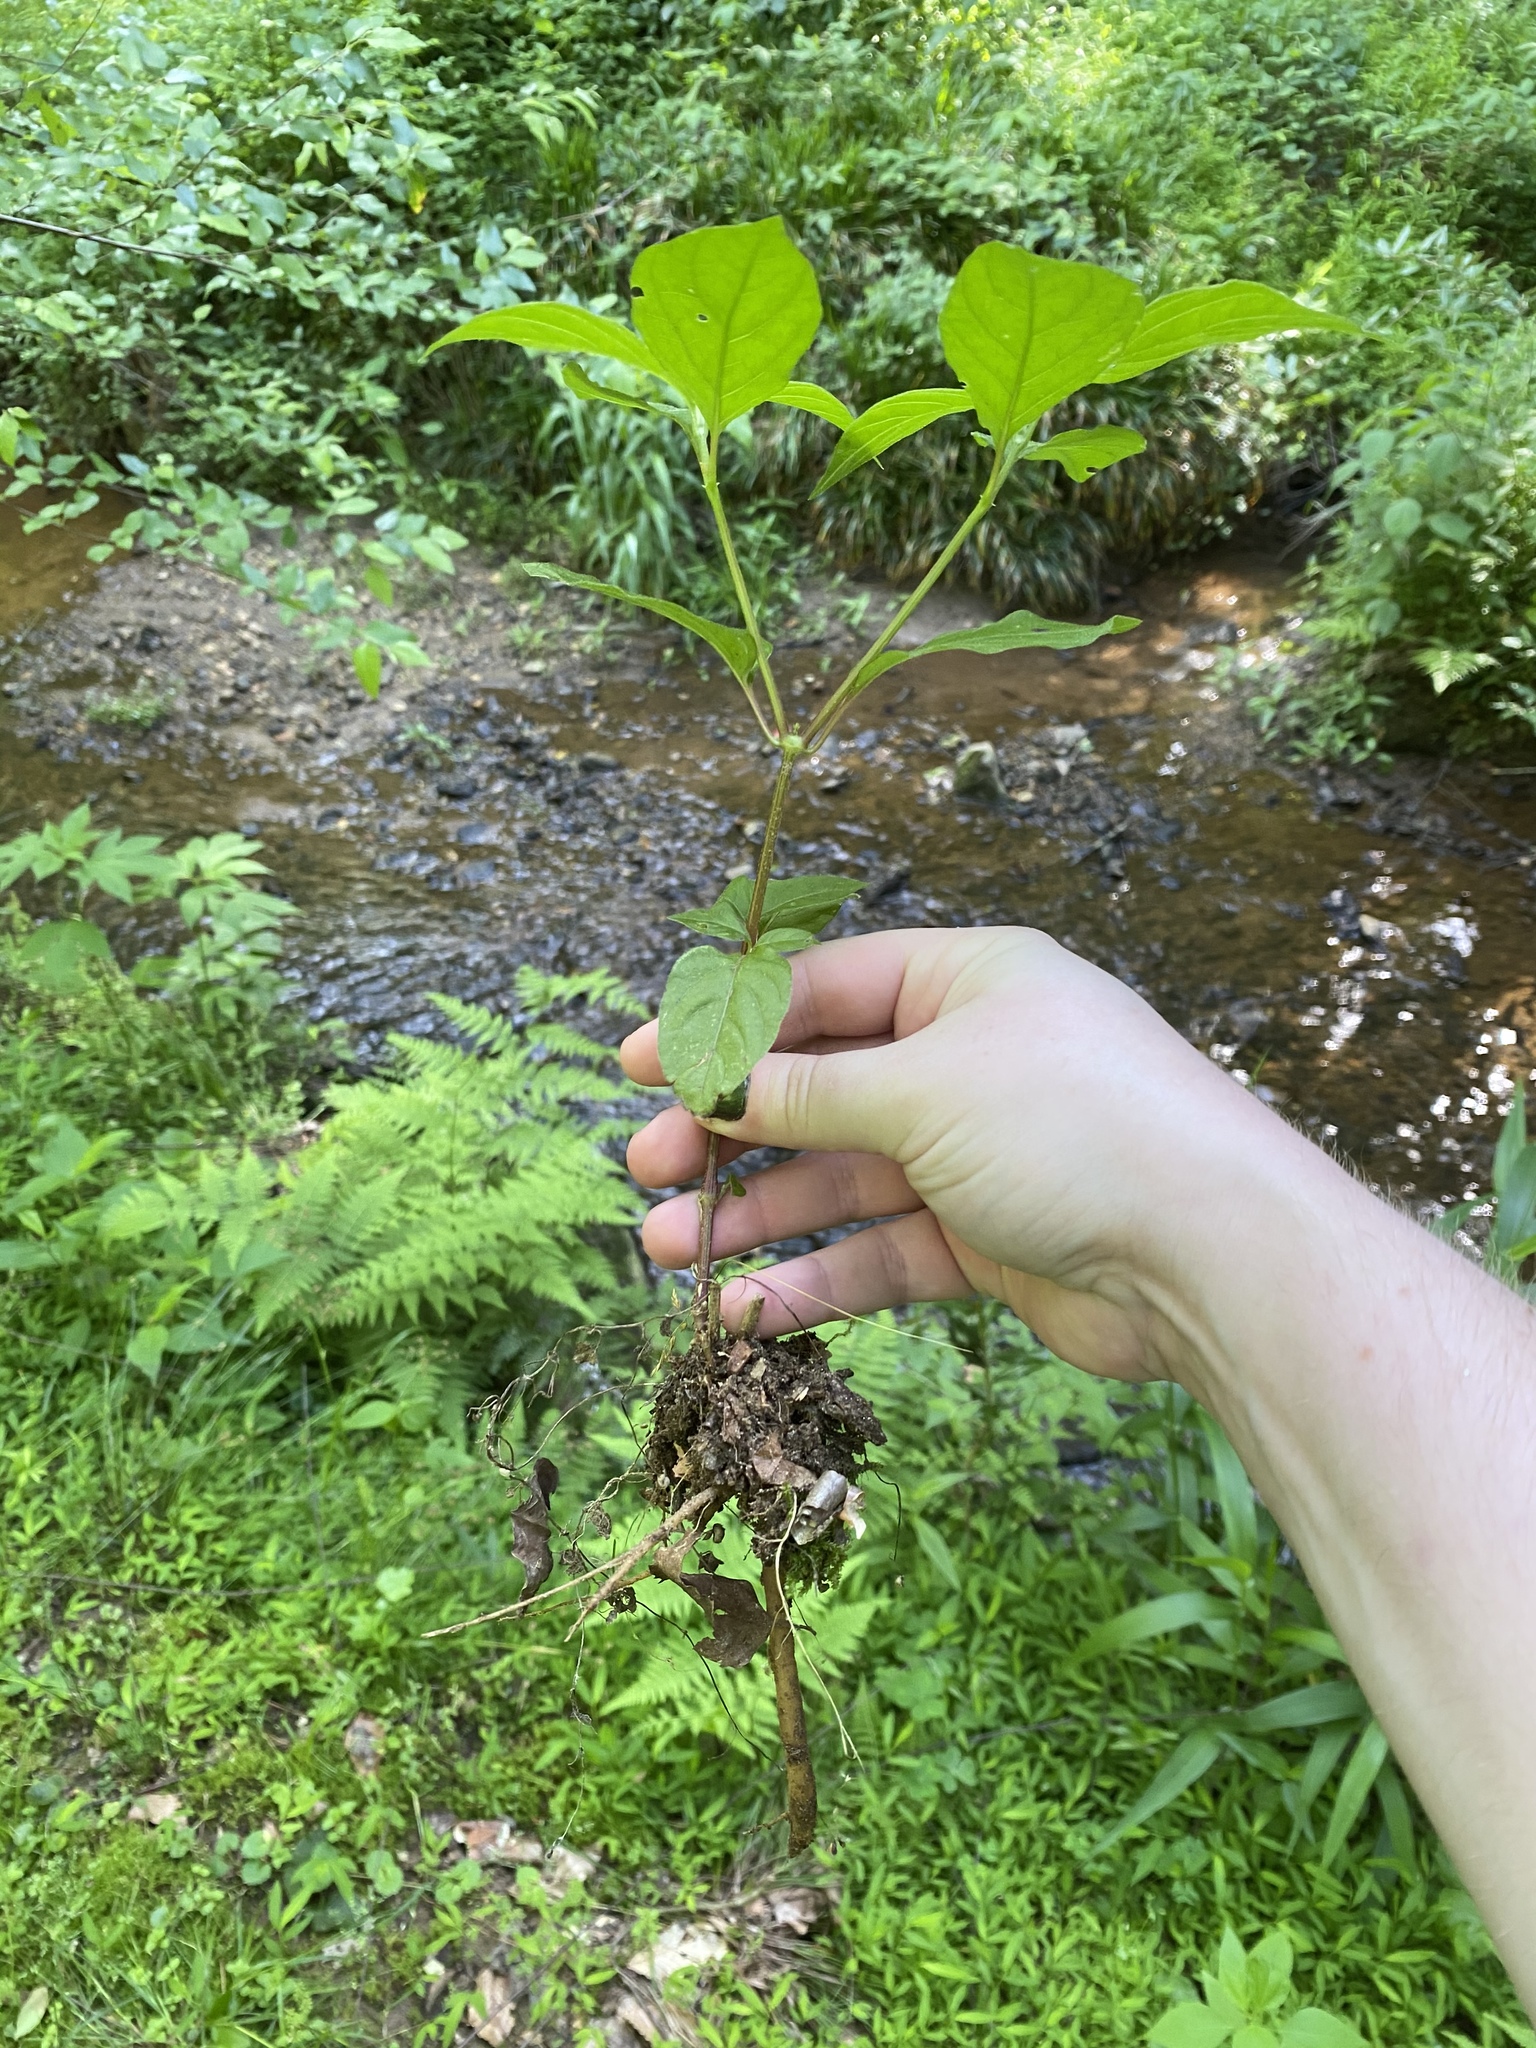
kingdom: Plantae
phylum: Tracheophyta
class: Magnoliopsida
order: Caryophyllales
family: Amaranthaceae
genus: Achyranthes
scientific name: Achyranthes bidentata
